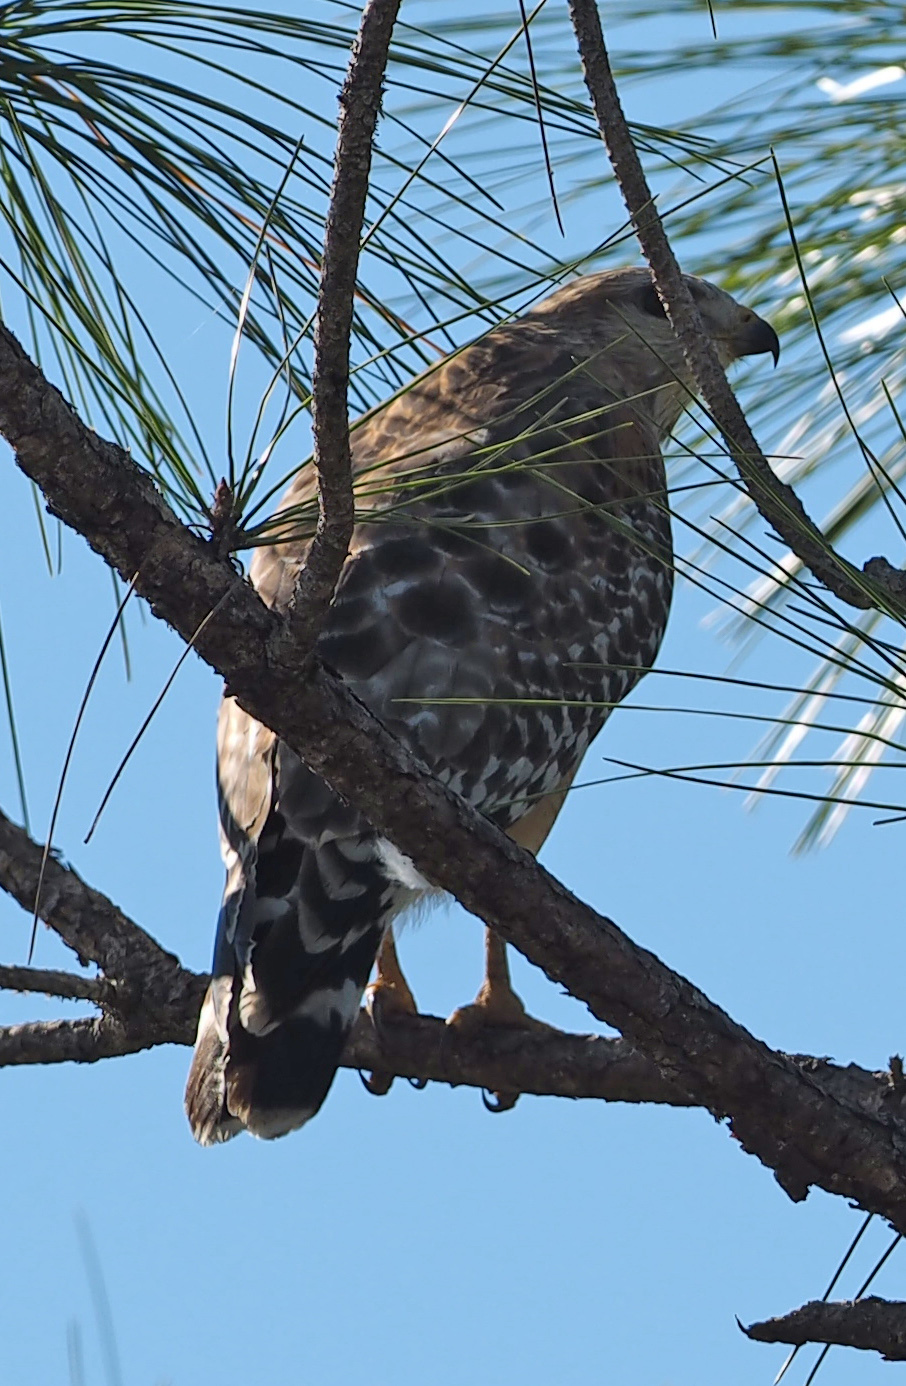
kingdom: Animalia
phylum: Chordata
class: Aves
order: Accipitriformes
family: Accipitridae
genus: Buteo
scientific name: Buteo lineatus
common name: Red-shouldered hawk
